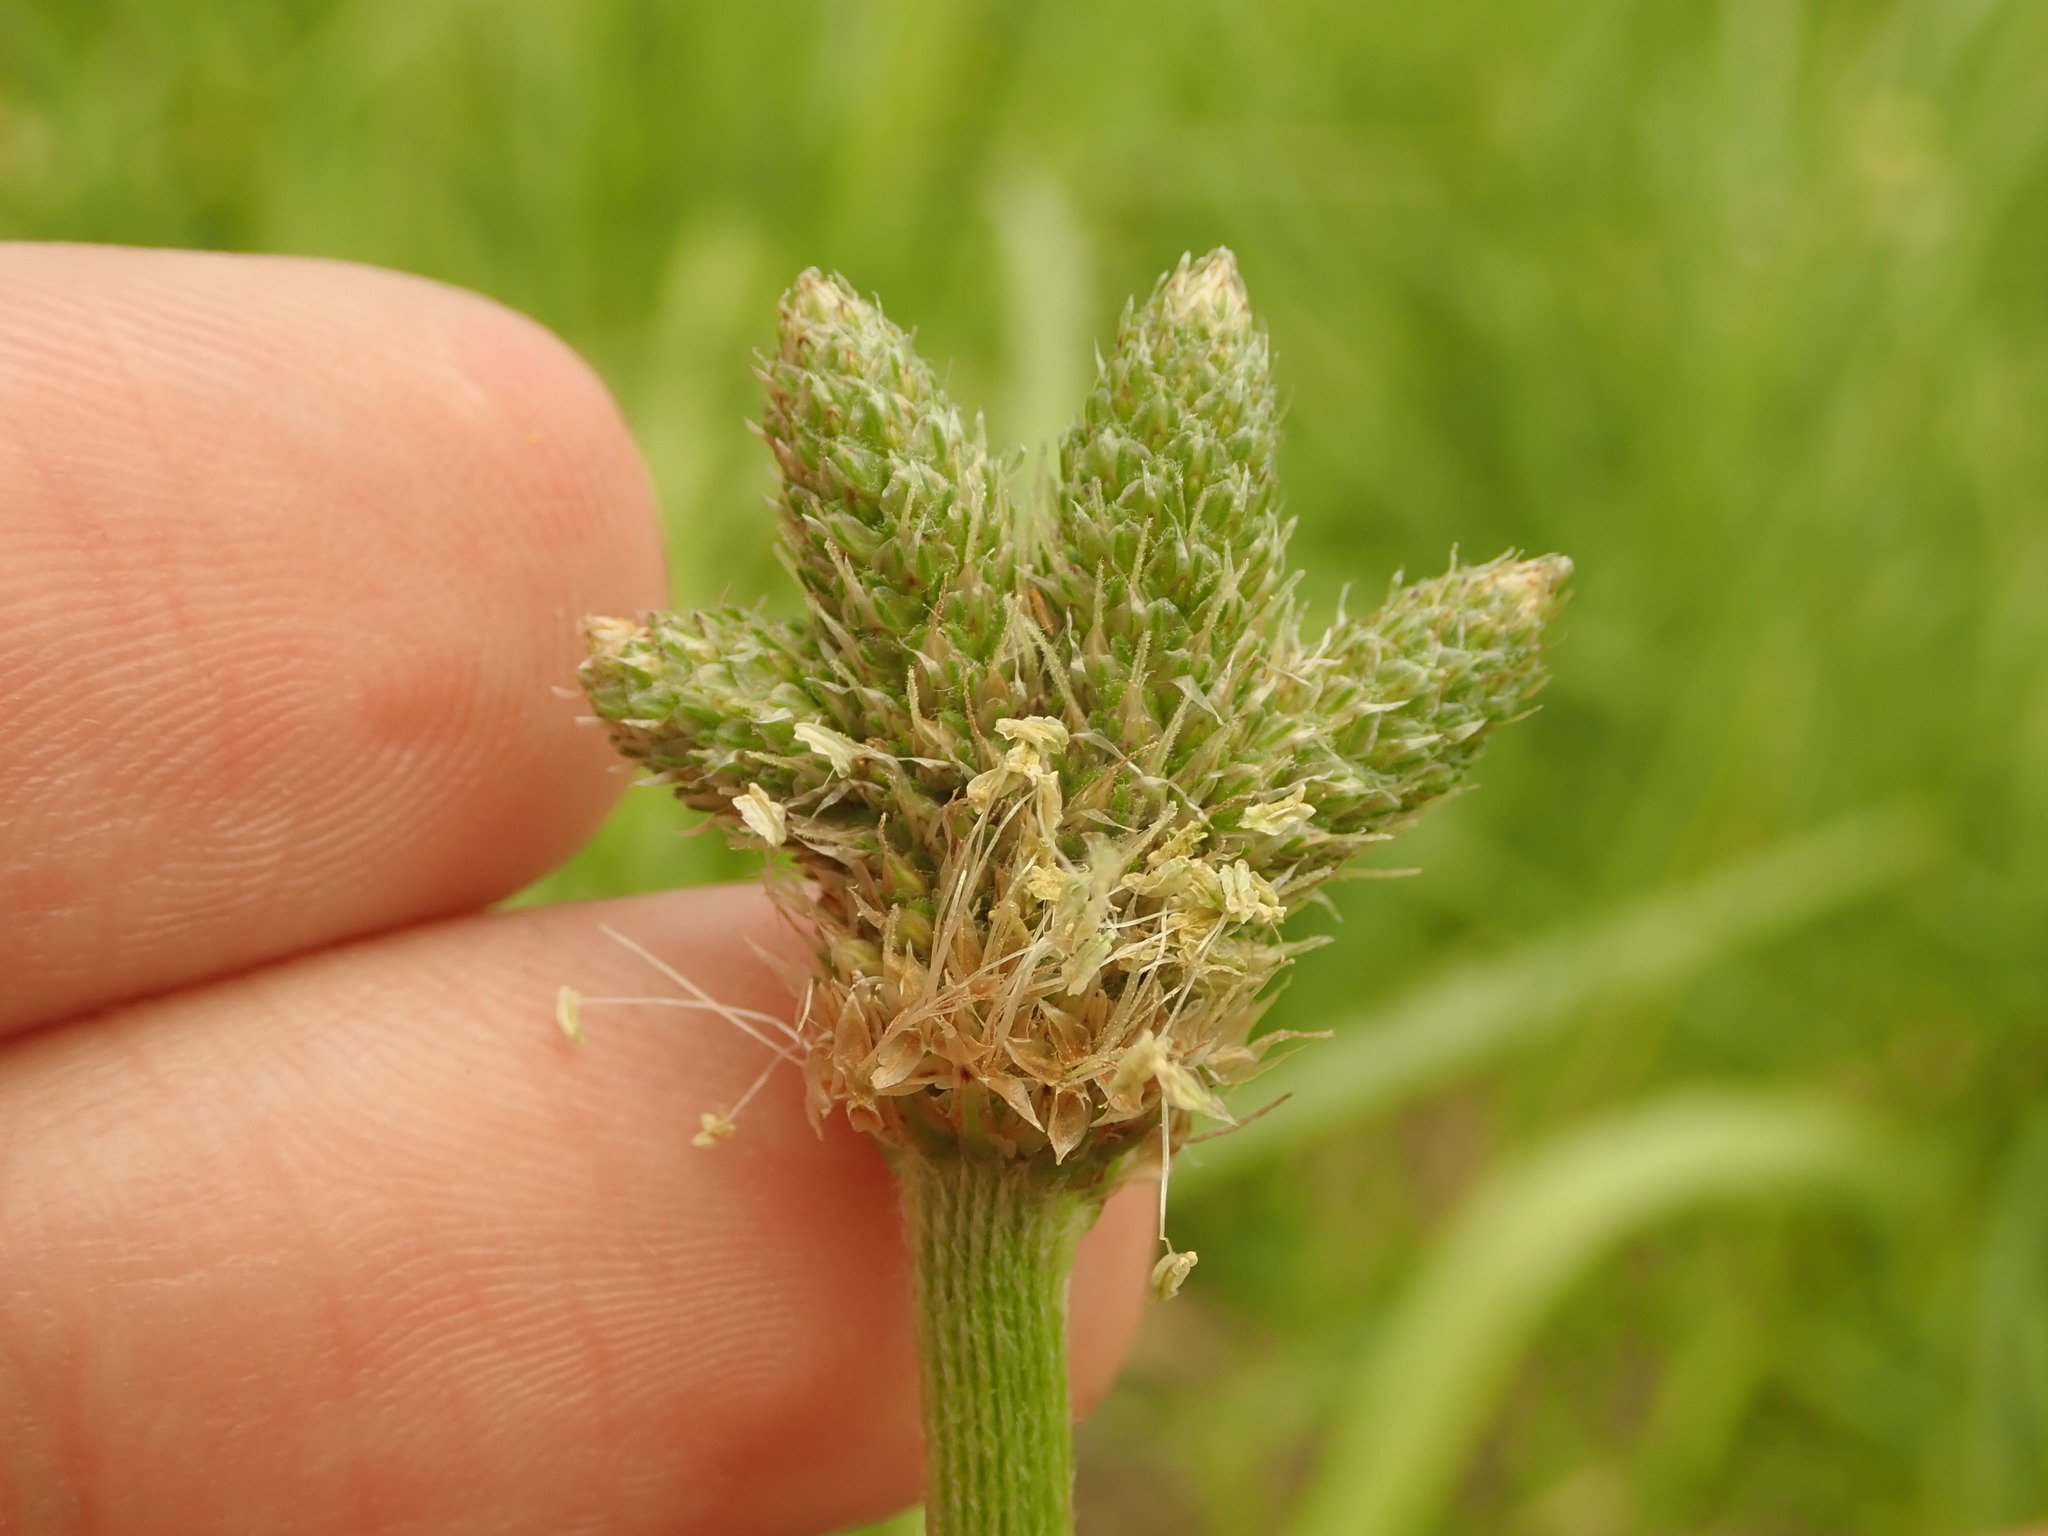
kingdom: Plantae
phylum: Tracheophyta
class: Magnoliopsida
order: Lamiales
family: Plantaginaceae
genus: Plantago
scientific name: Plantago lanceolata
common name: Ribwort plantain
